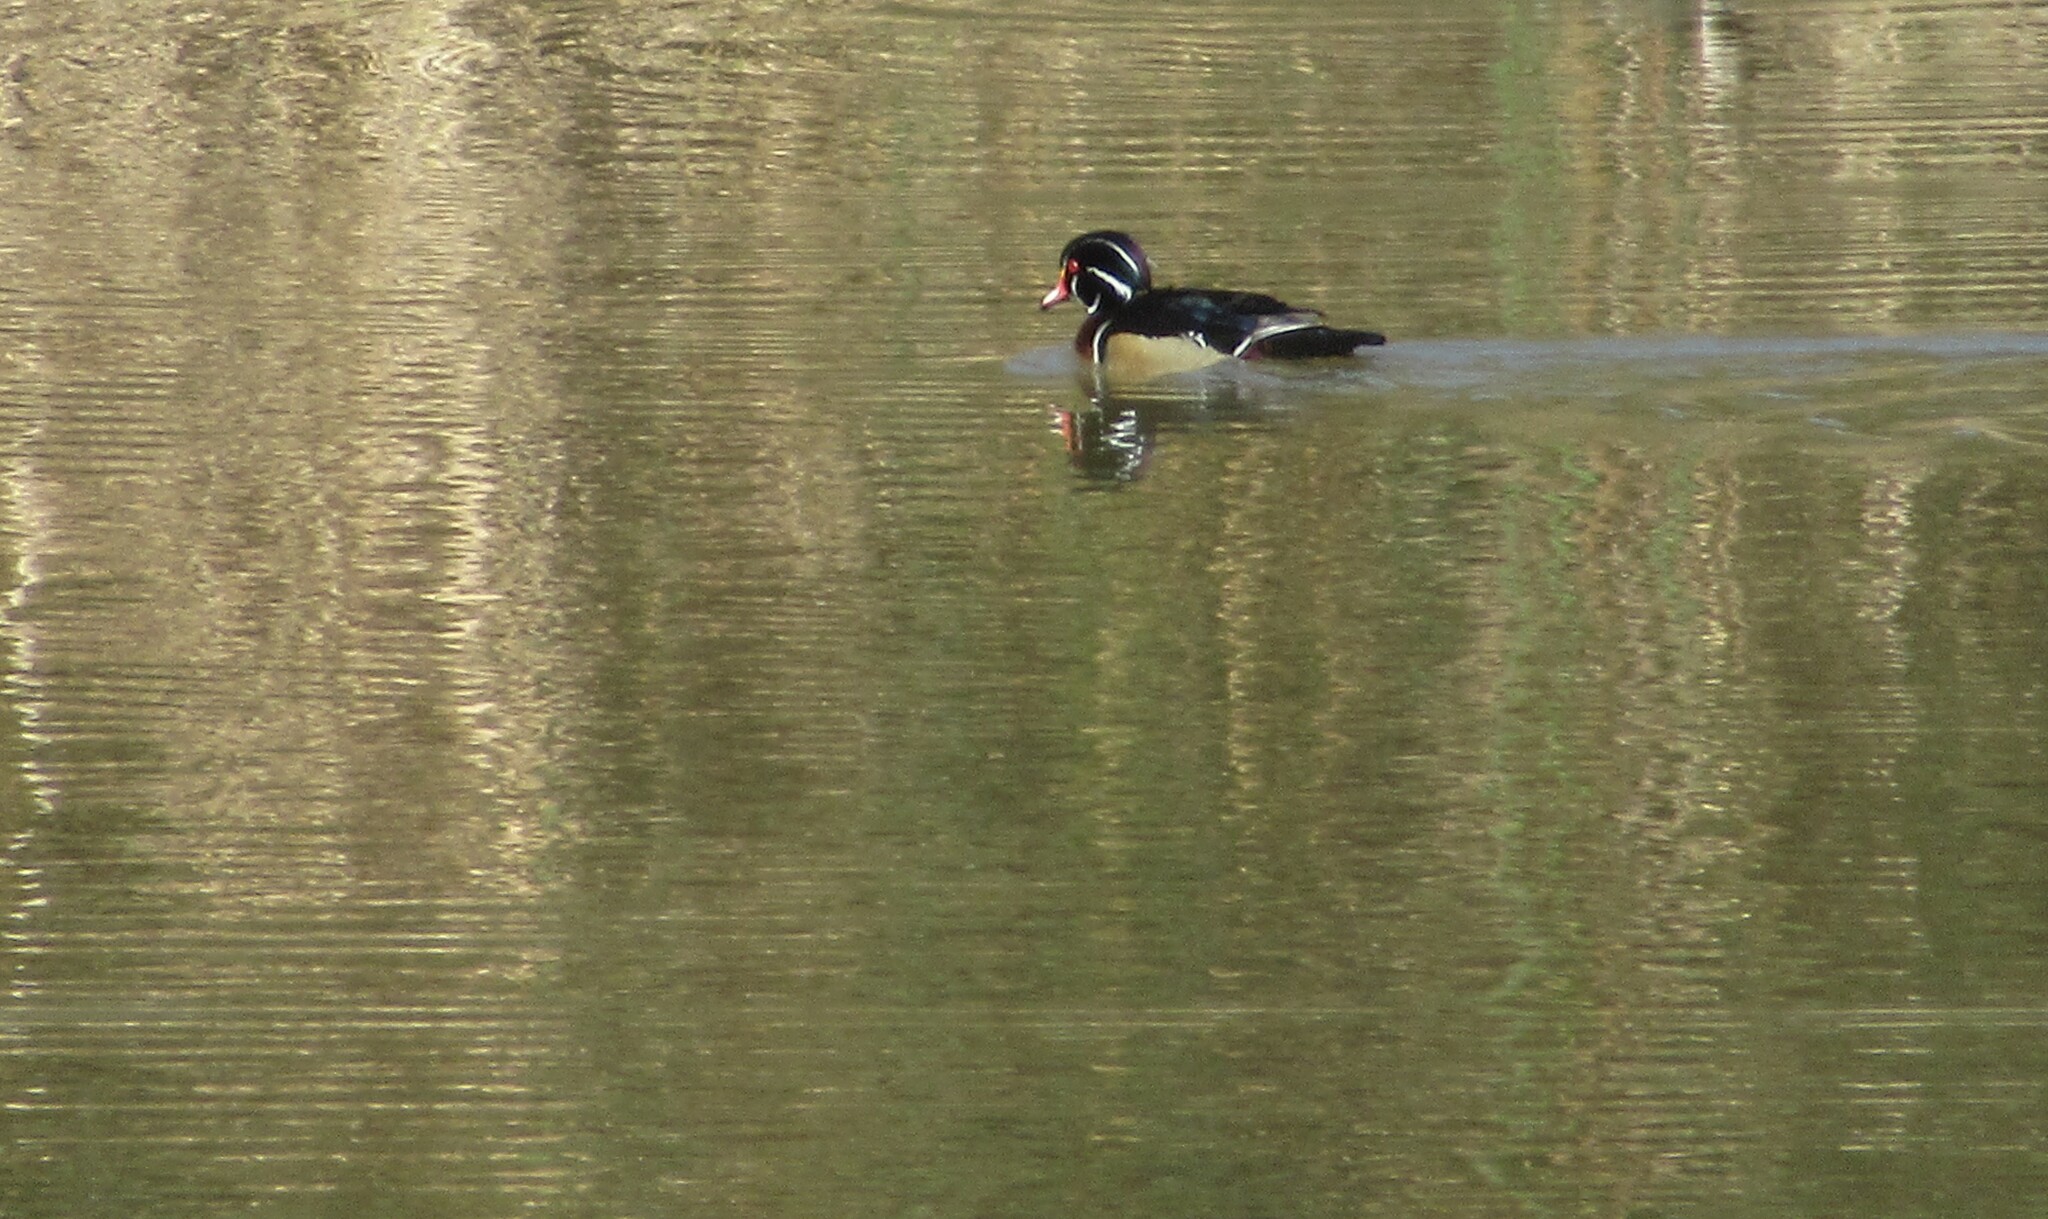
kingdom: Animalia
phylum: Chordata
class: Aves
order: Anseriformes
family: Anatidae
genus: Aix
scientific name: Aix sponsa
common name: Wood duck
